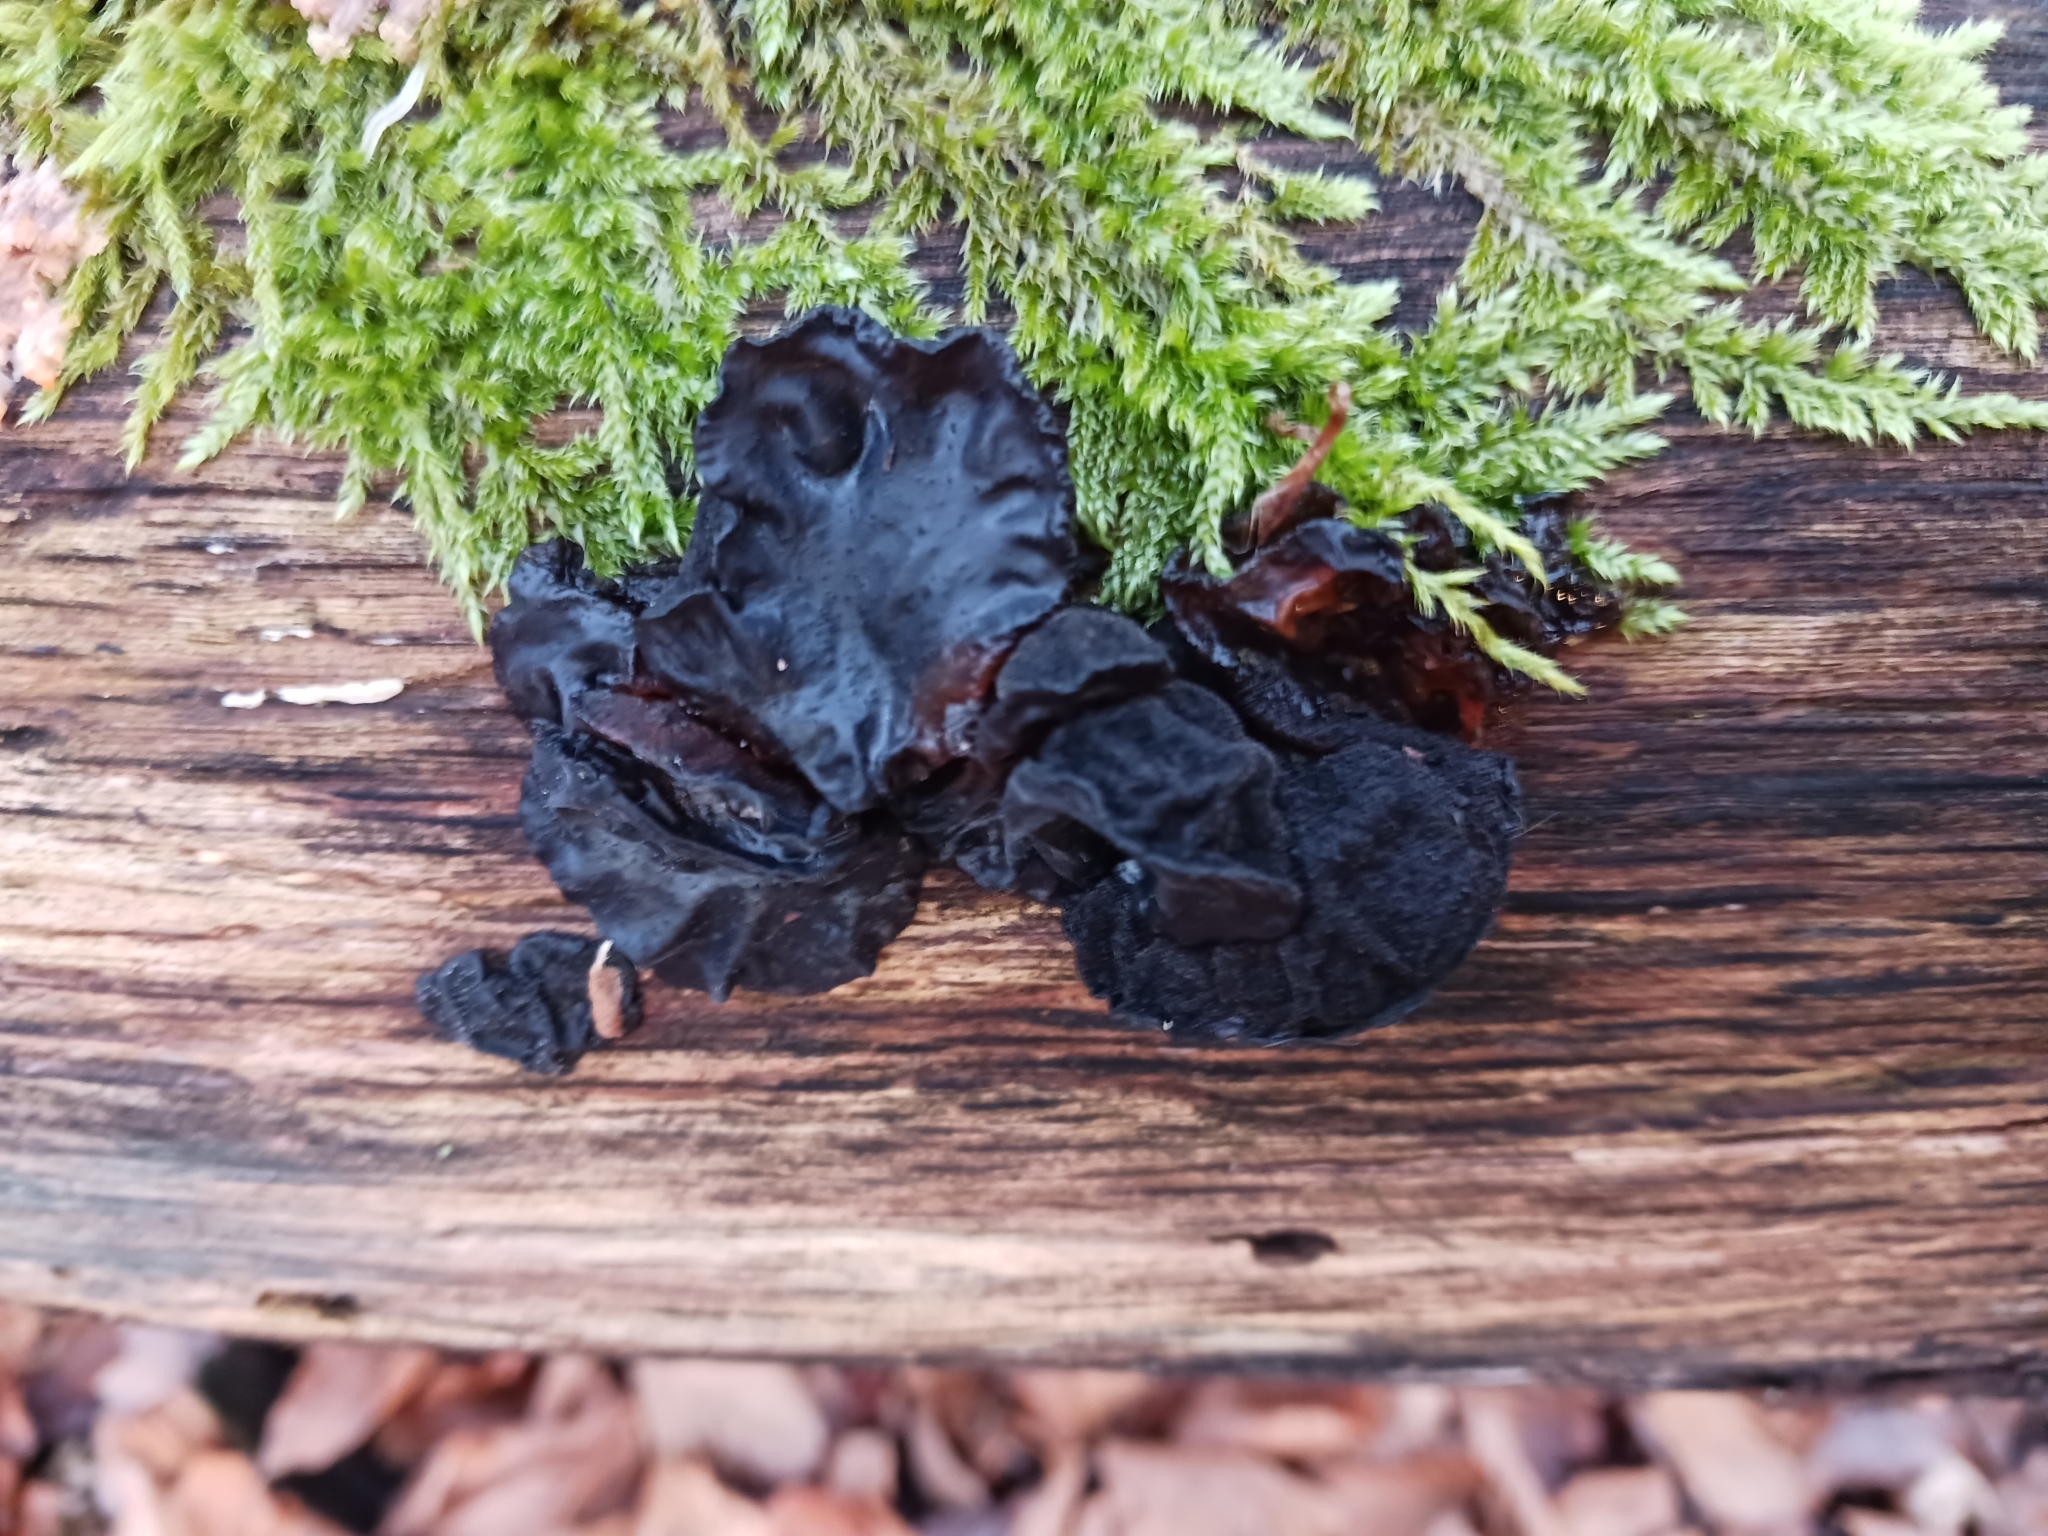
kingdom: Fungi
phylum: Basidiomycota
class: Agaricomycetes
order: Auriculariales
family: Auriculariaceae
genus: Exidia
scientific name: Exidia glandulosa
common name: Witches' butter
